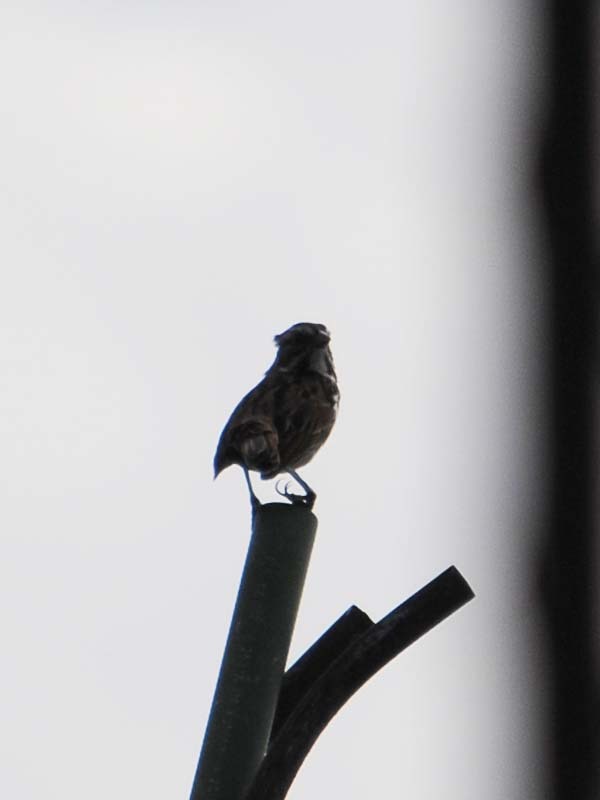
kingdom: Animalia
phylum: Chordata
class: Aves
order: Passeriformes
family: Passerellidae
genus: Melospiza
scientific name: Melospiza melodia
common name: Song sparrow
